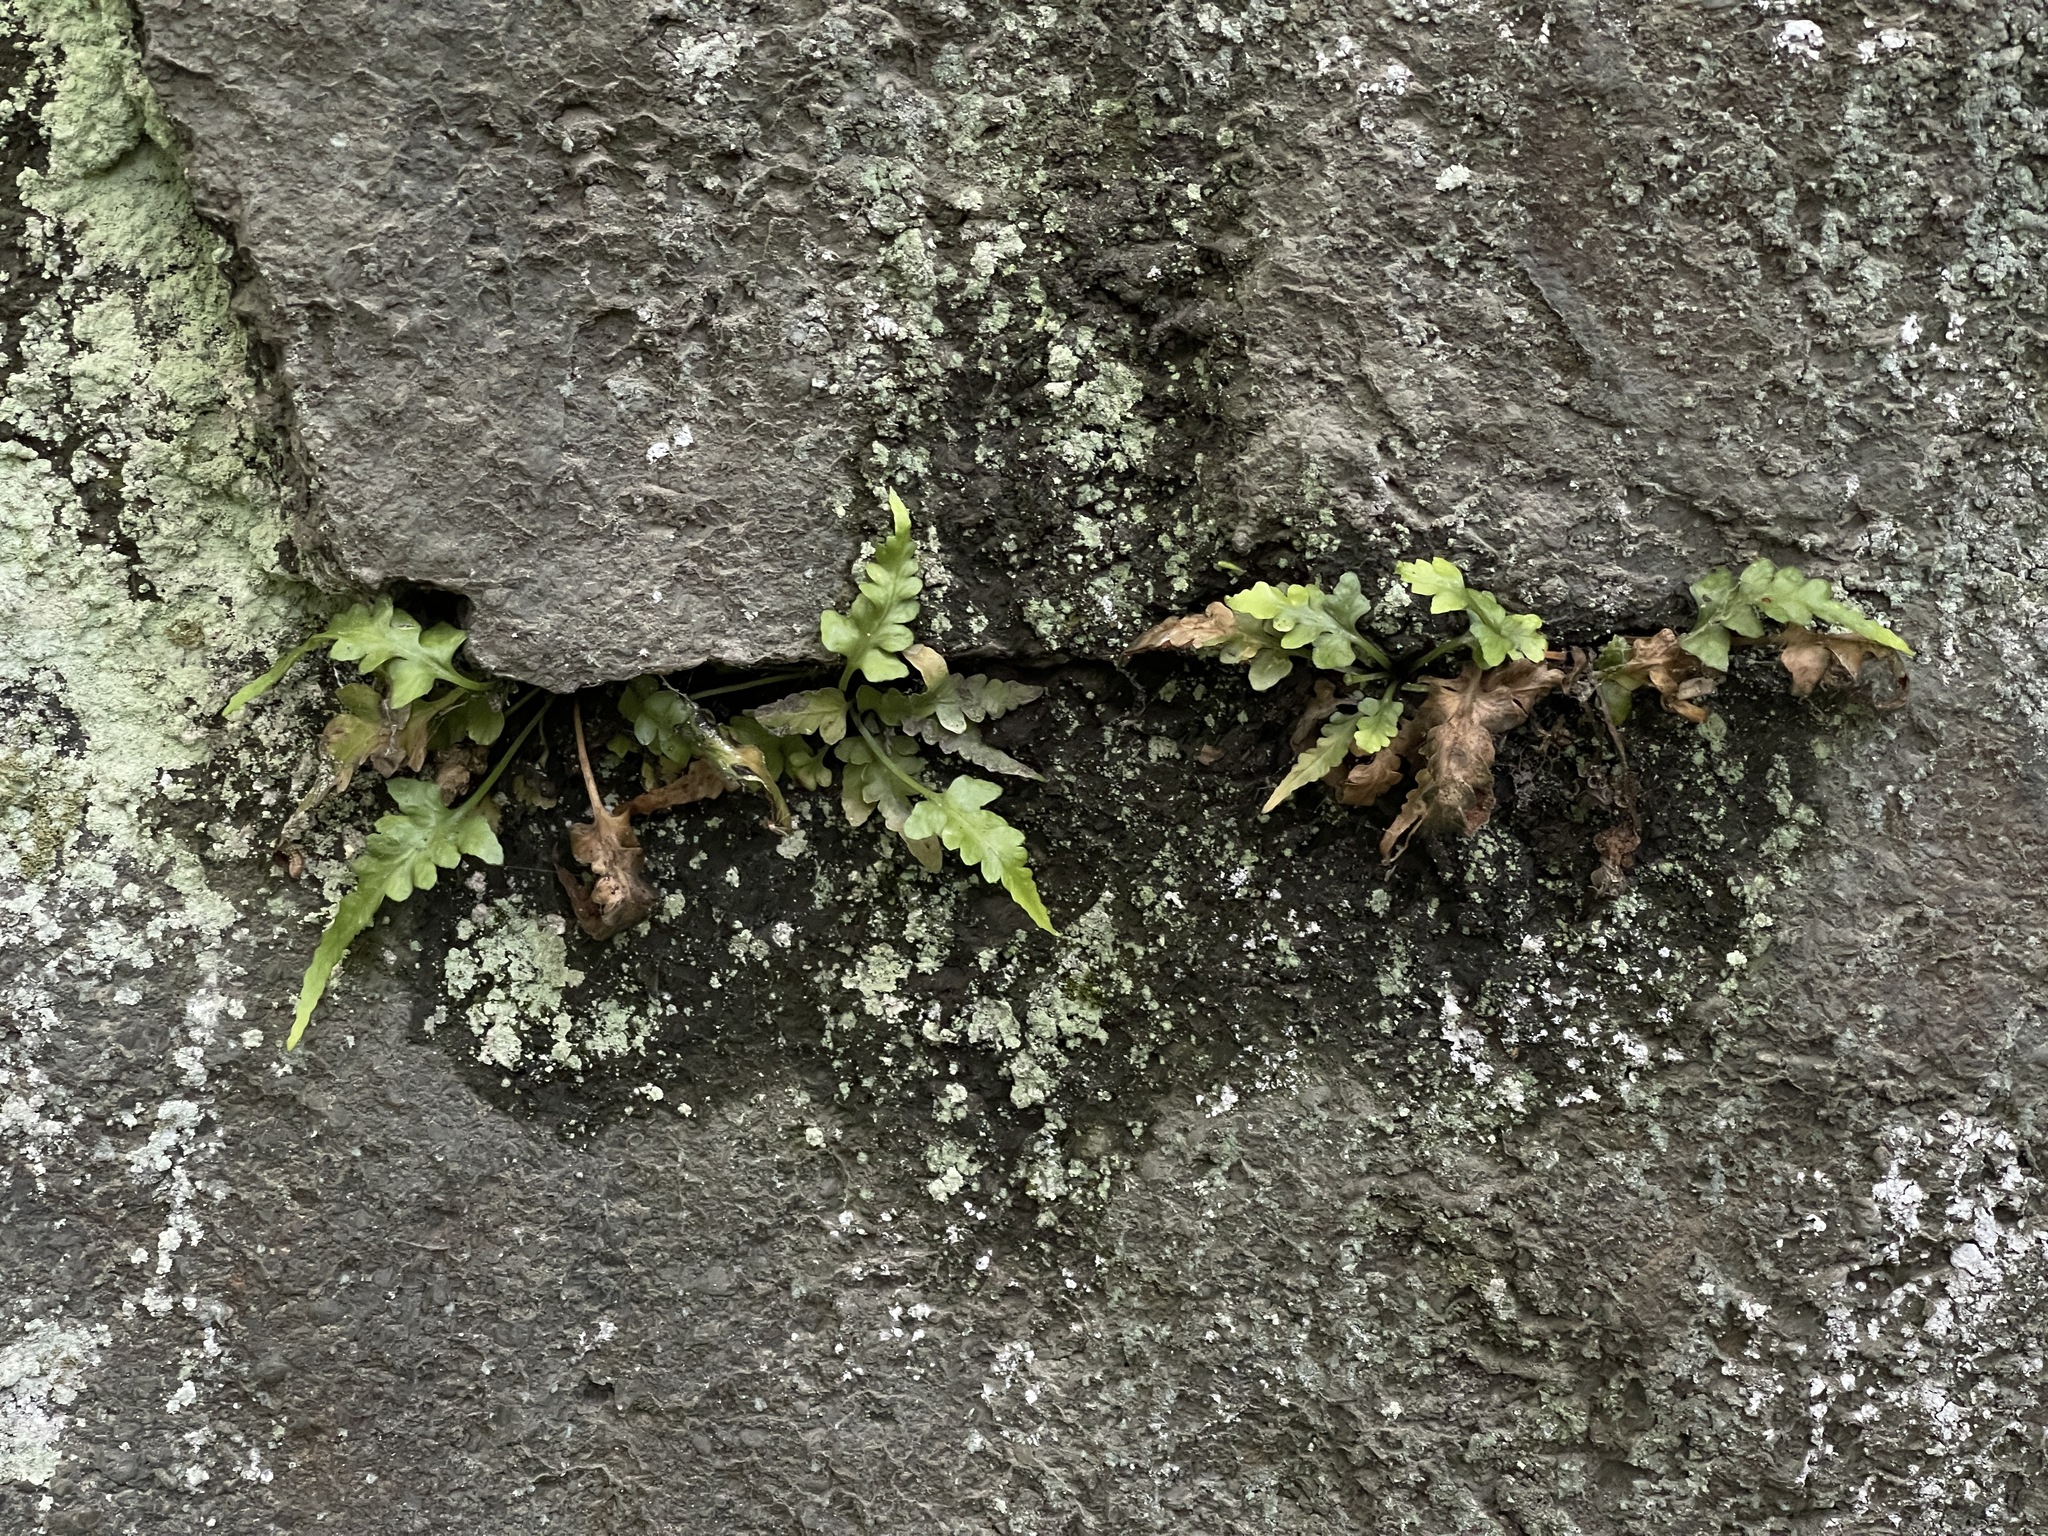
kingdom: Plantae
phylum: Tracheophyta
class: Polypodiopsida
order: Polypodiales
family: Aspleniaceae
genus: Asplenium
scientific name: Asplenium pinnatifidum
